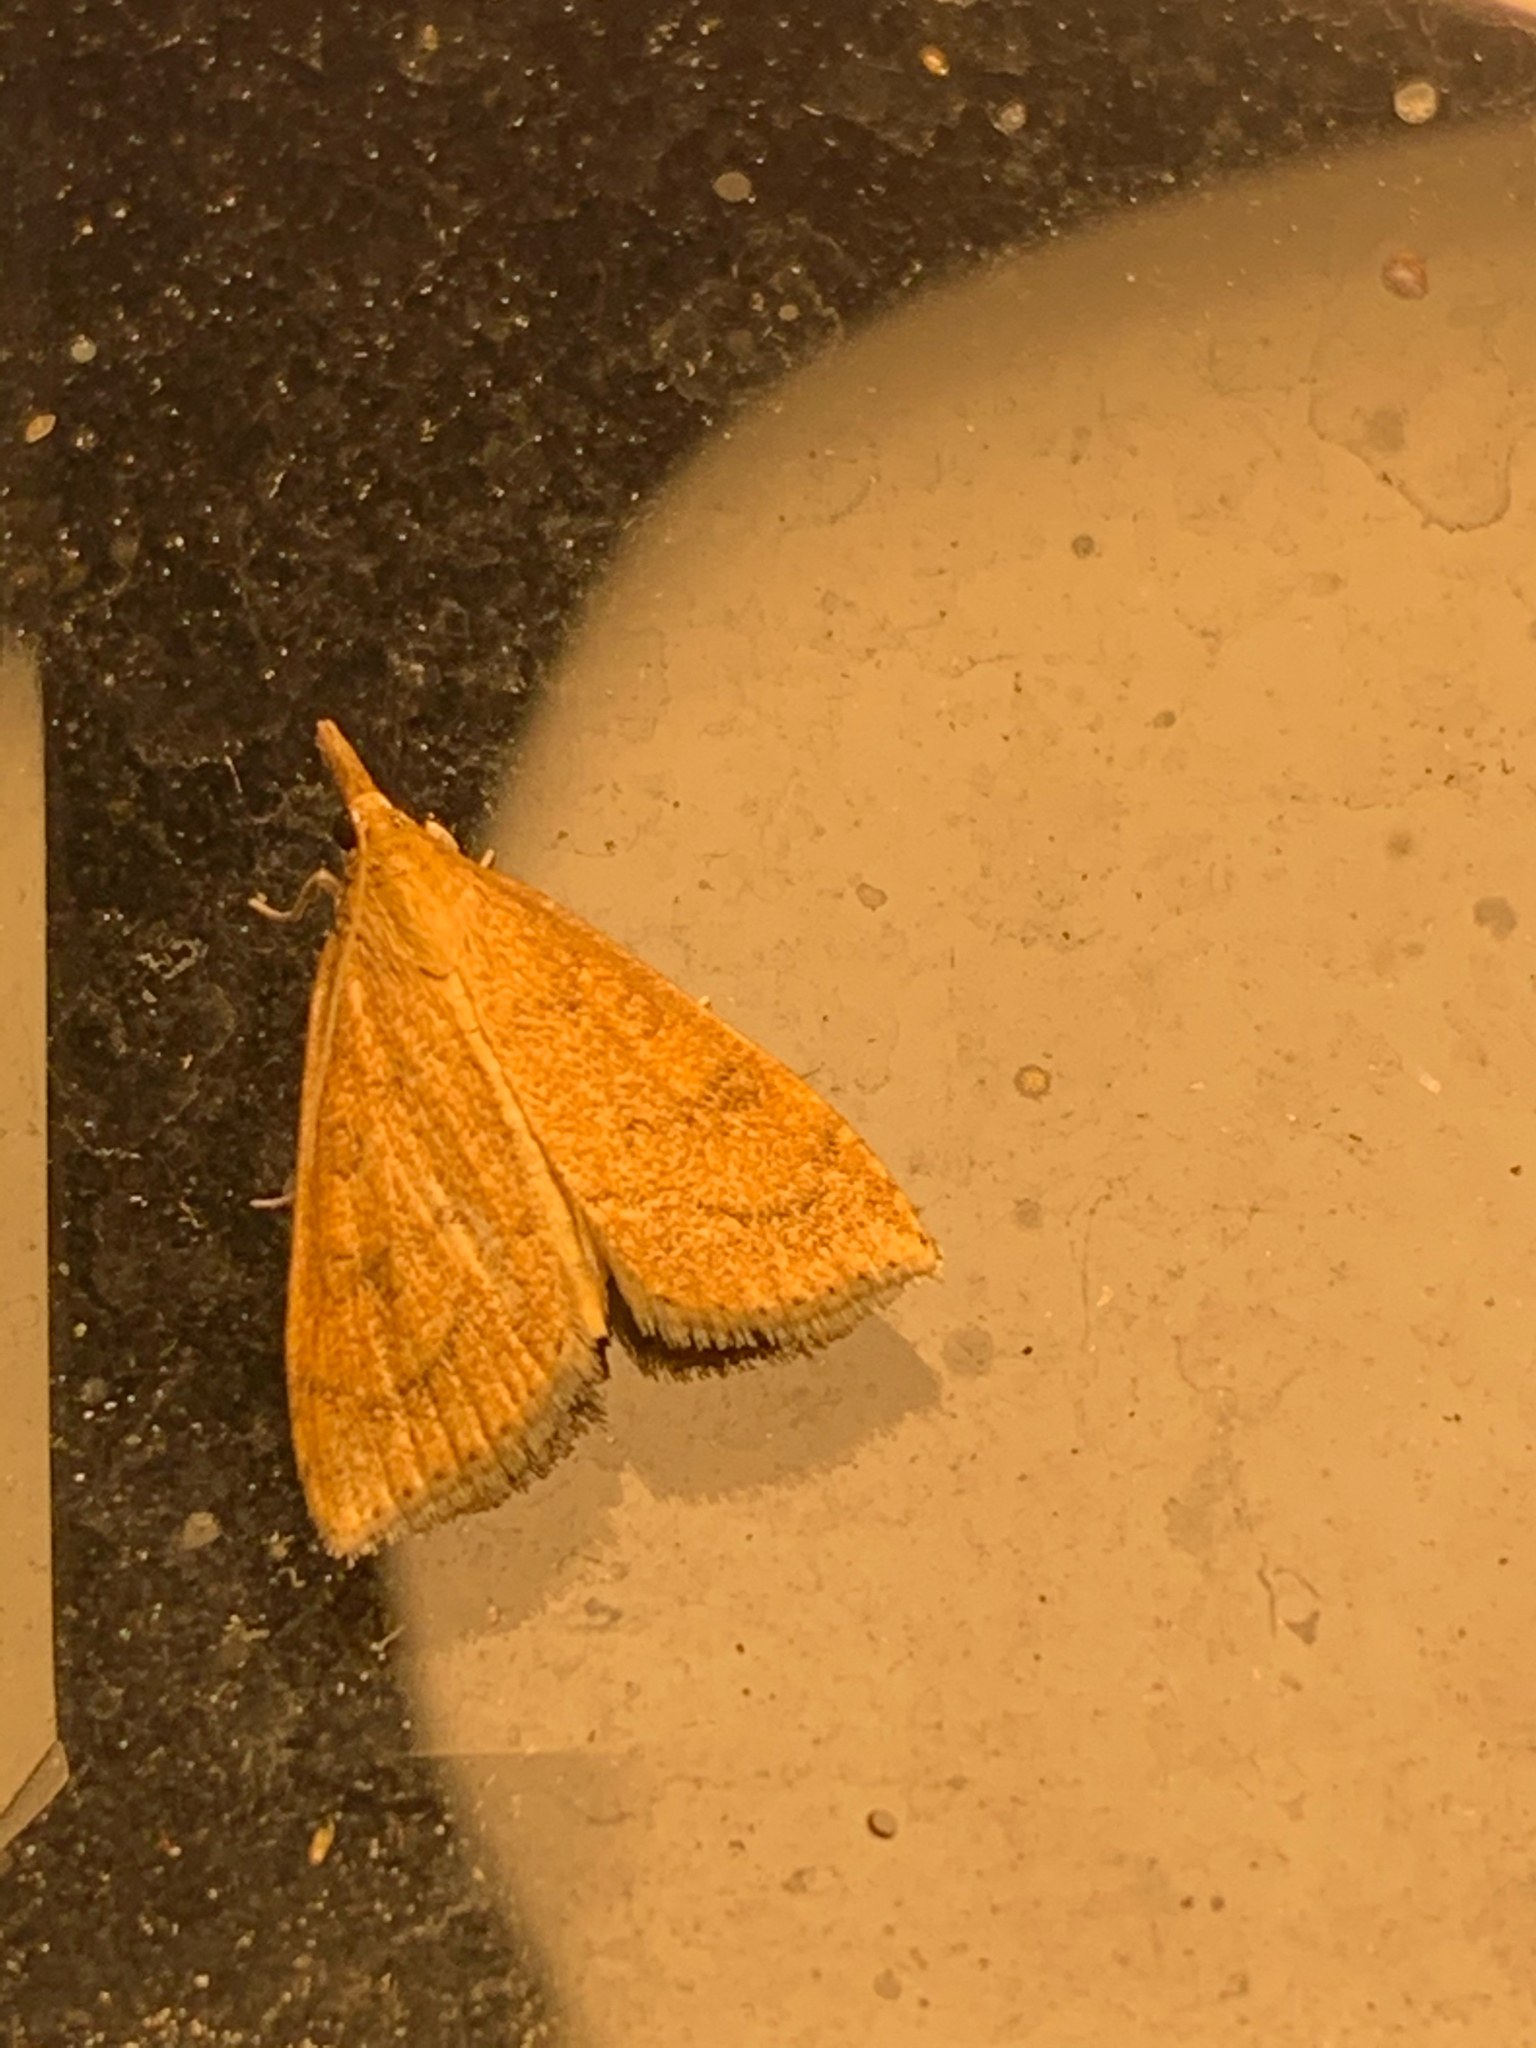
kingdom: Animalia
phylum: Arthropoda
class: Insecta
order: Lepidoptera
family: Crambidae
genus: Udea
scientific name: Udea rubigalis
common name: Celery leaftier moth
